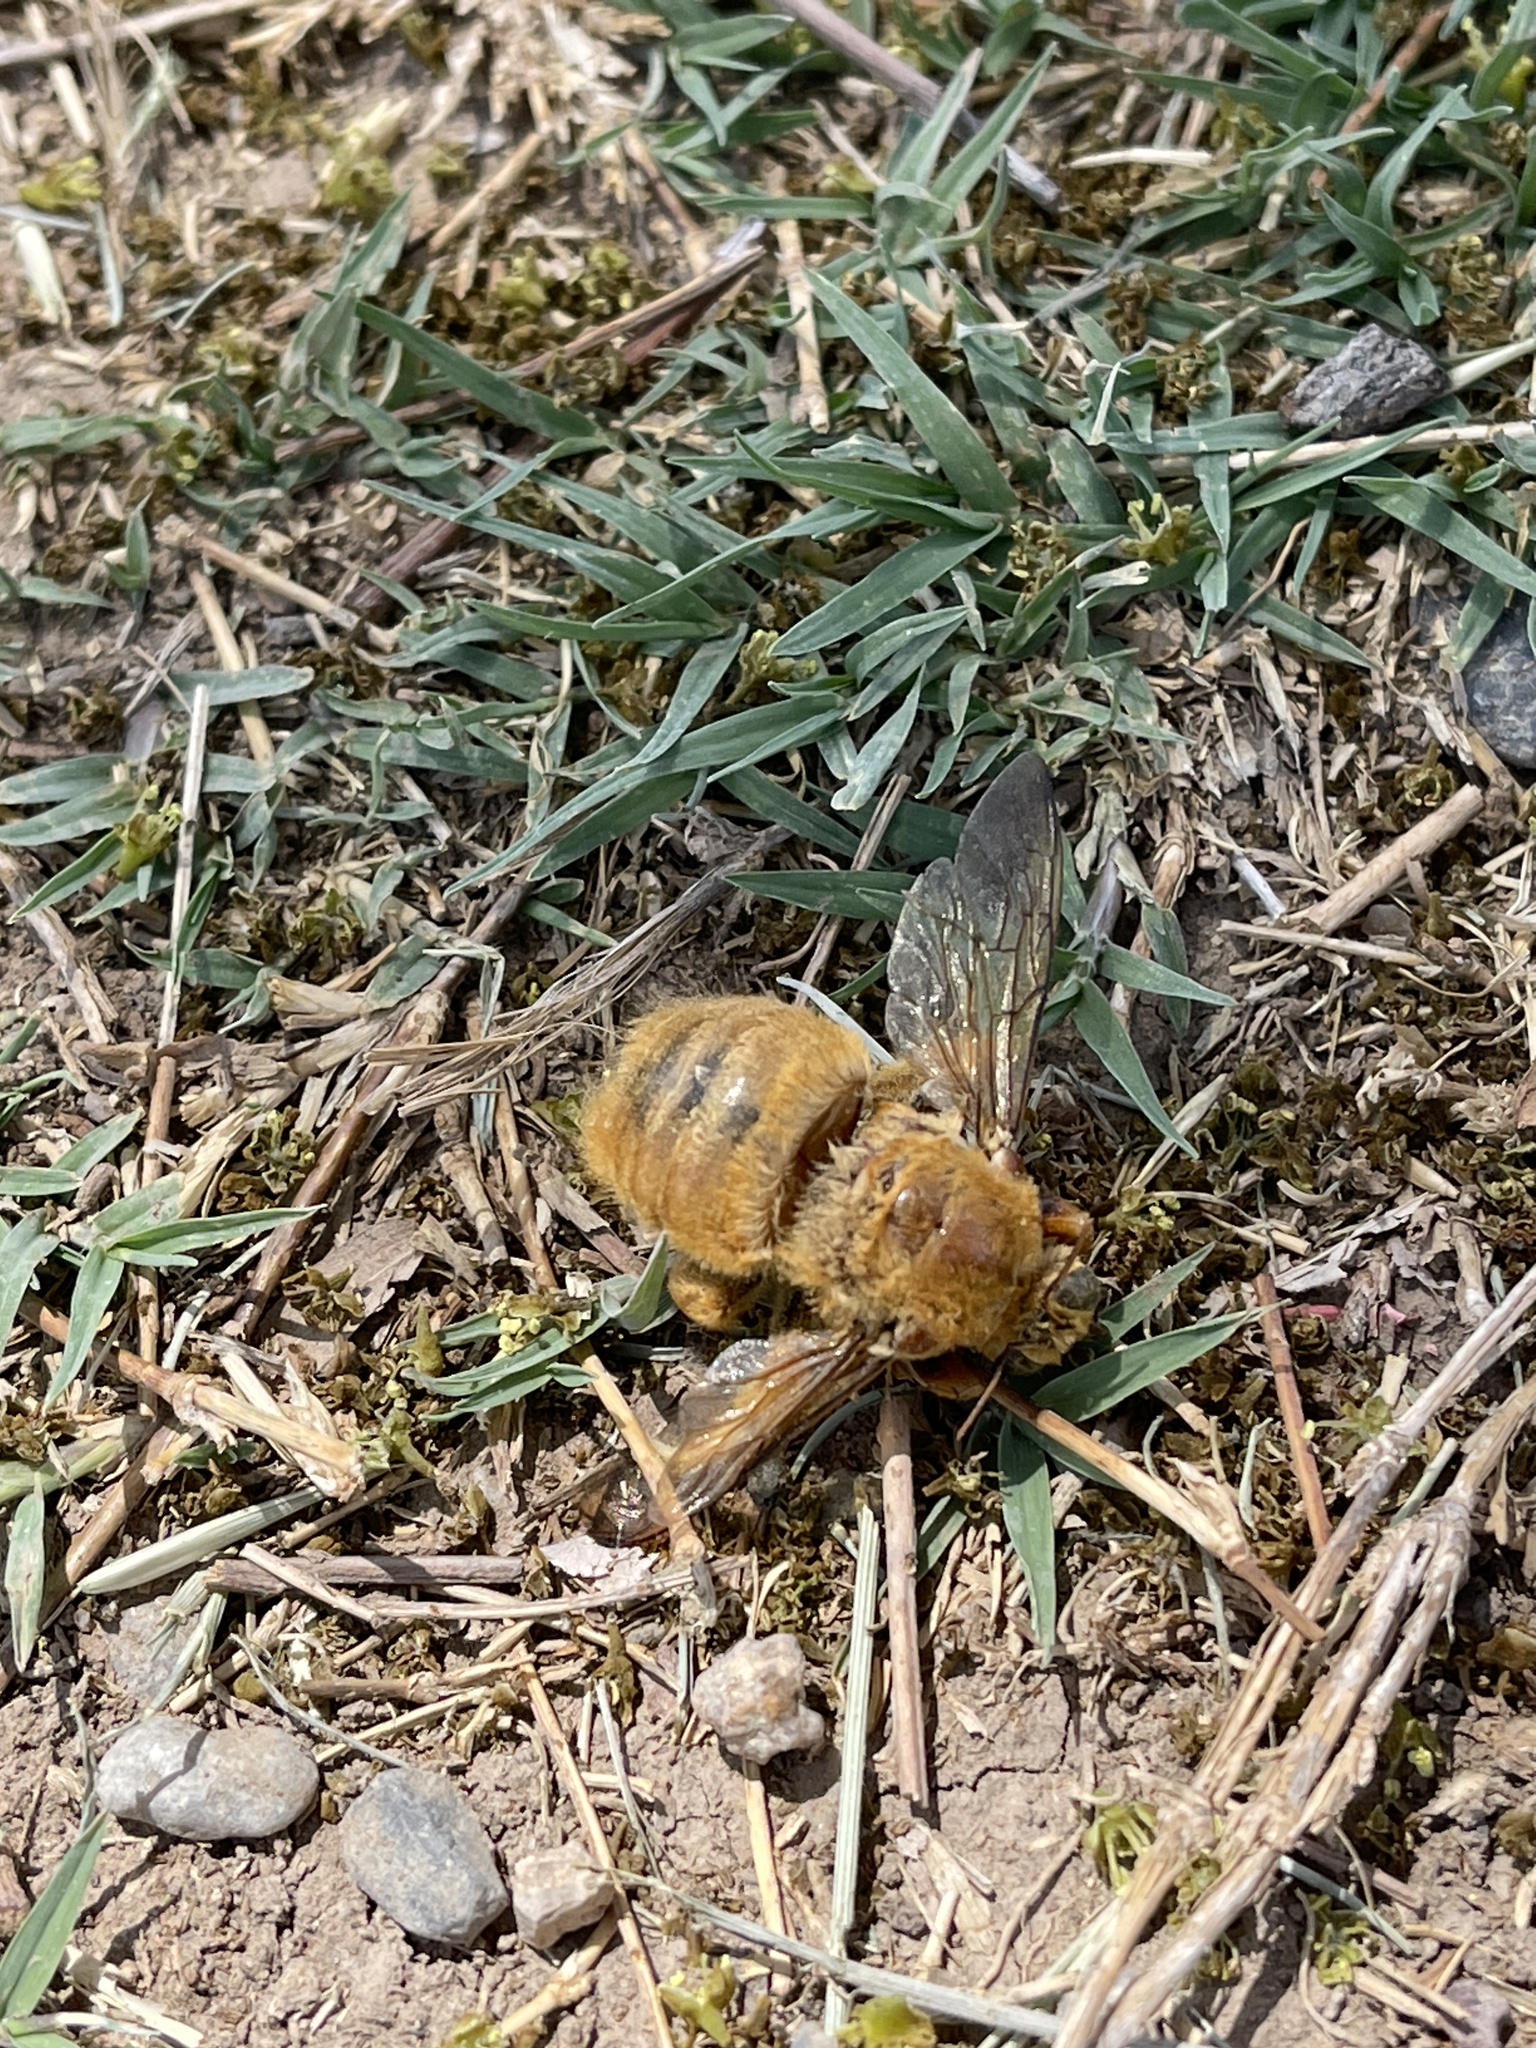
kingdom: Animalia
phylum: Arthropoda
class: Insecta
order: Hymenoptera
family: Apidae
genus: Xylocopa
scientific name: Xylocopa sonorina
